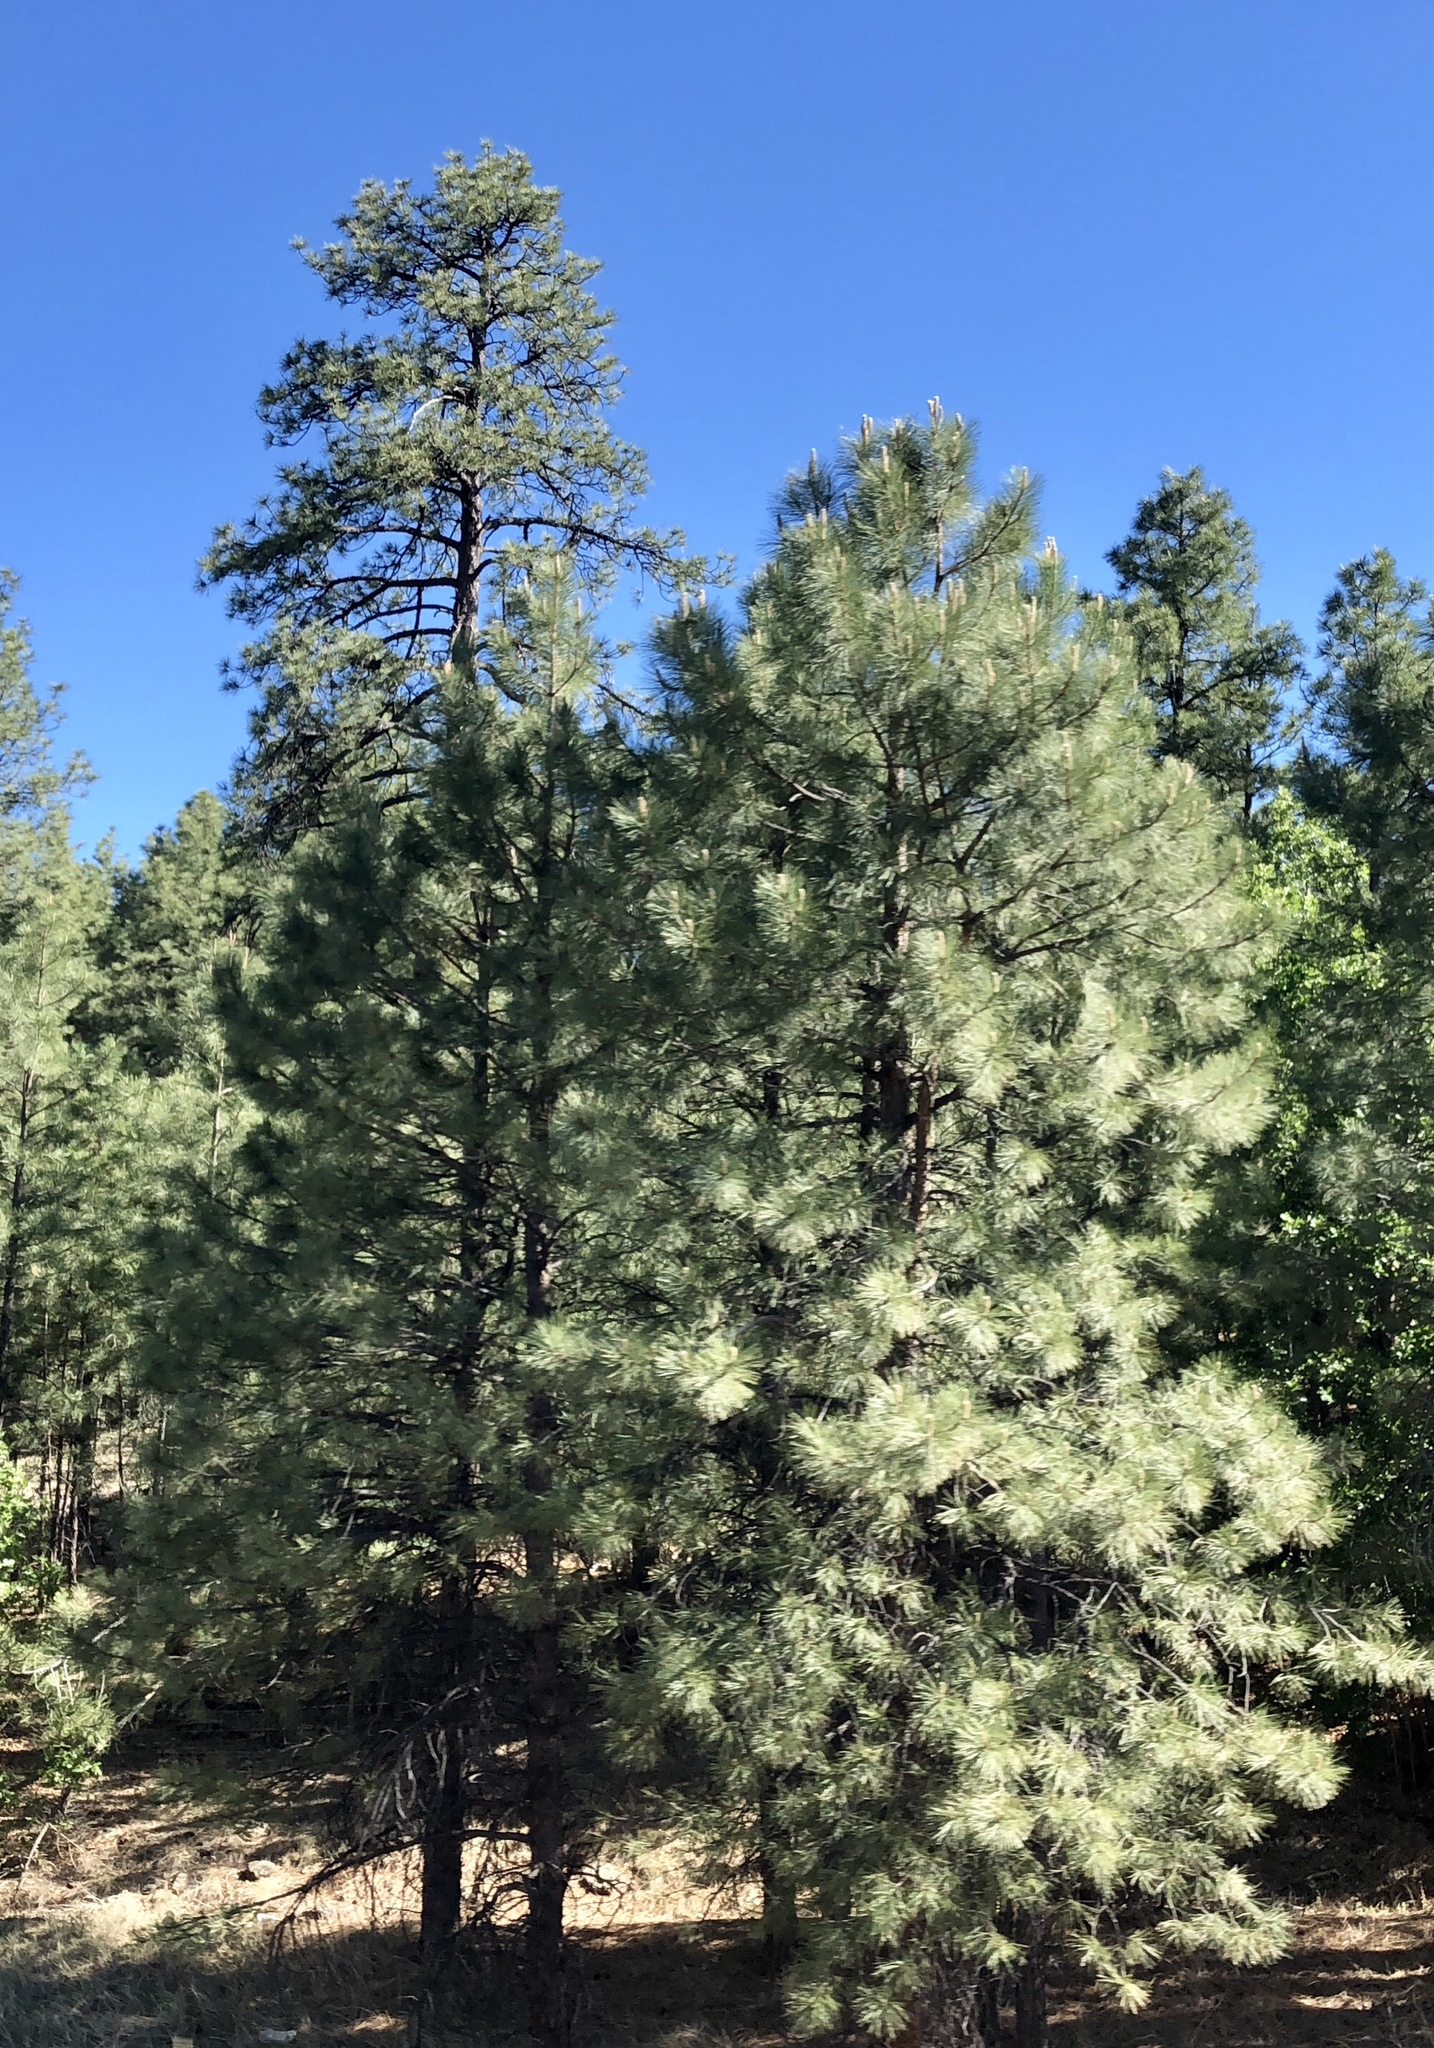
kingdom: Plantae
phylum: Tracheophyta
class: Pinopsida
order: Pinales
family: Pinaceae
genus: Pinus
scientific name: Pinus ponderosa
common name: Western yellow-pine
